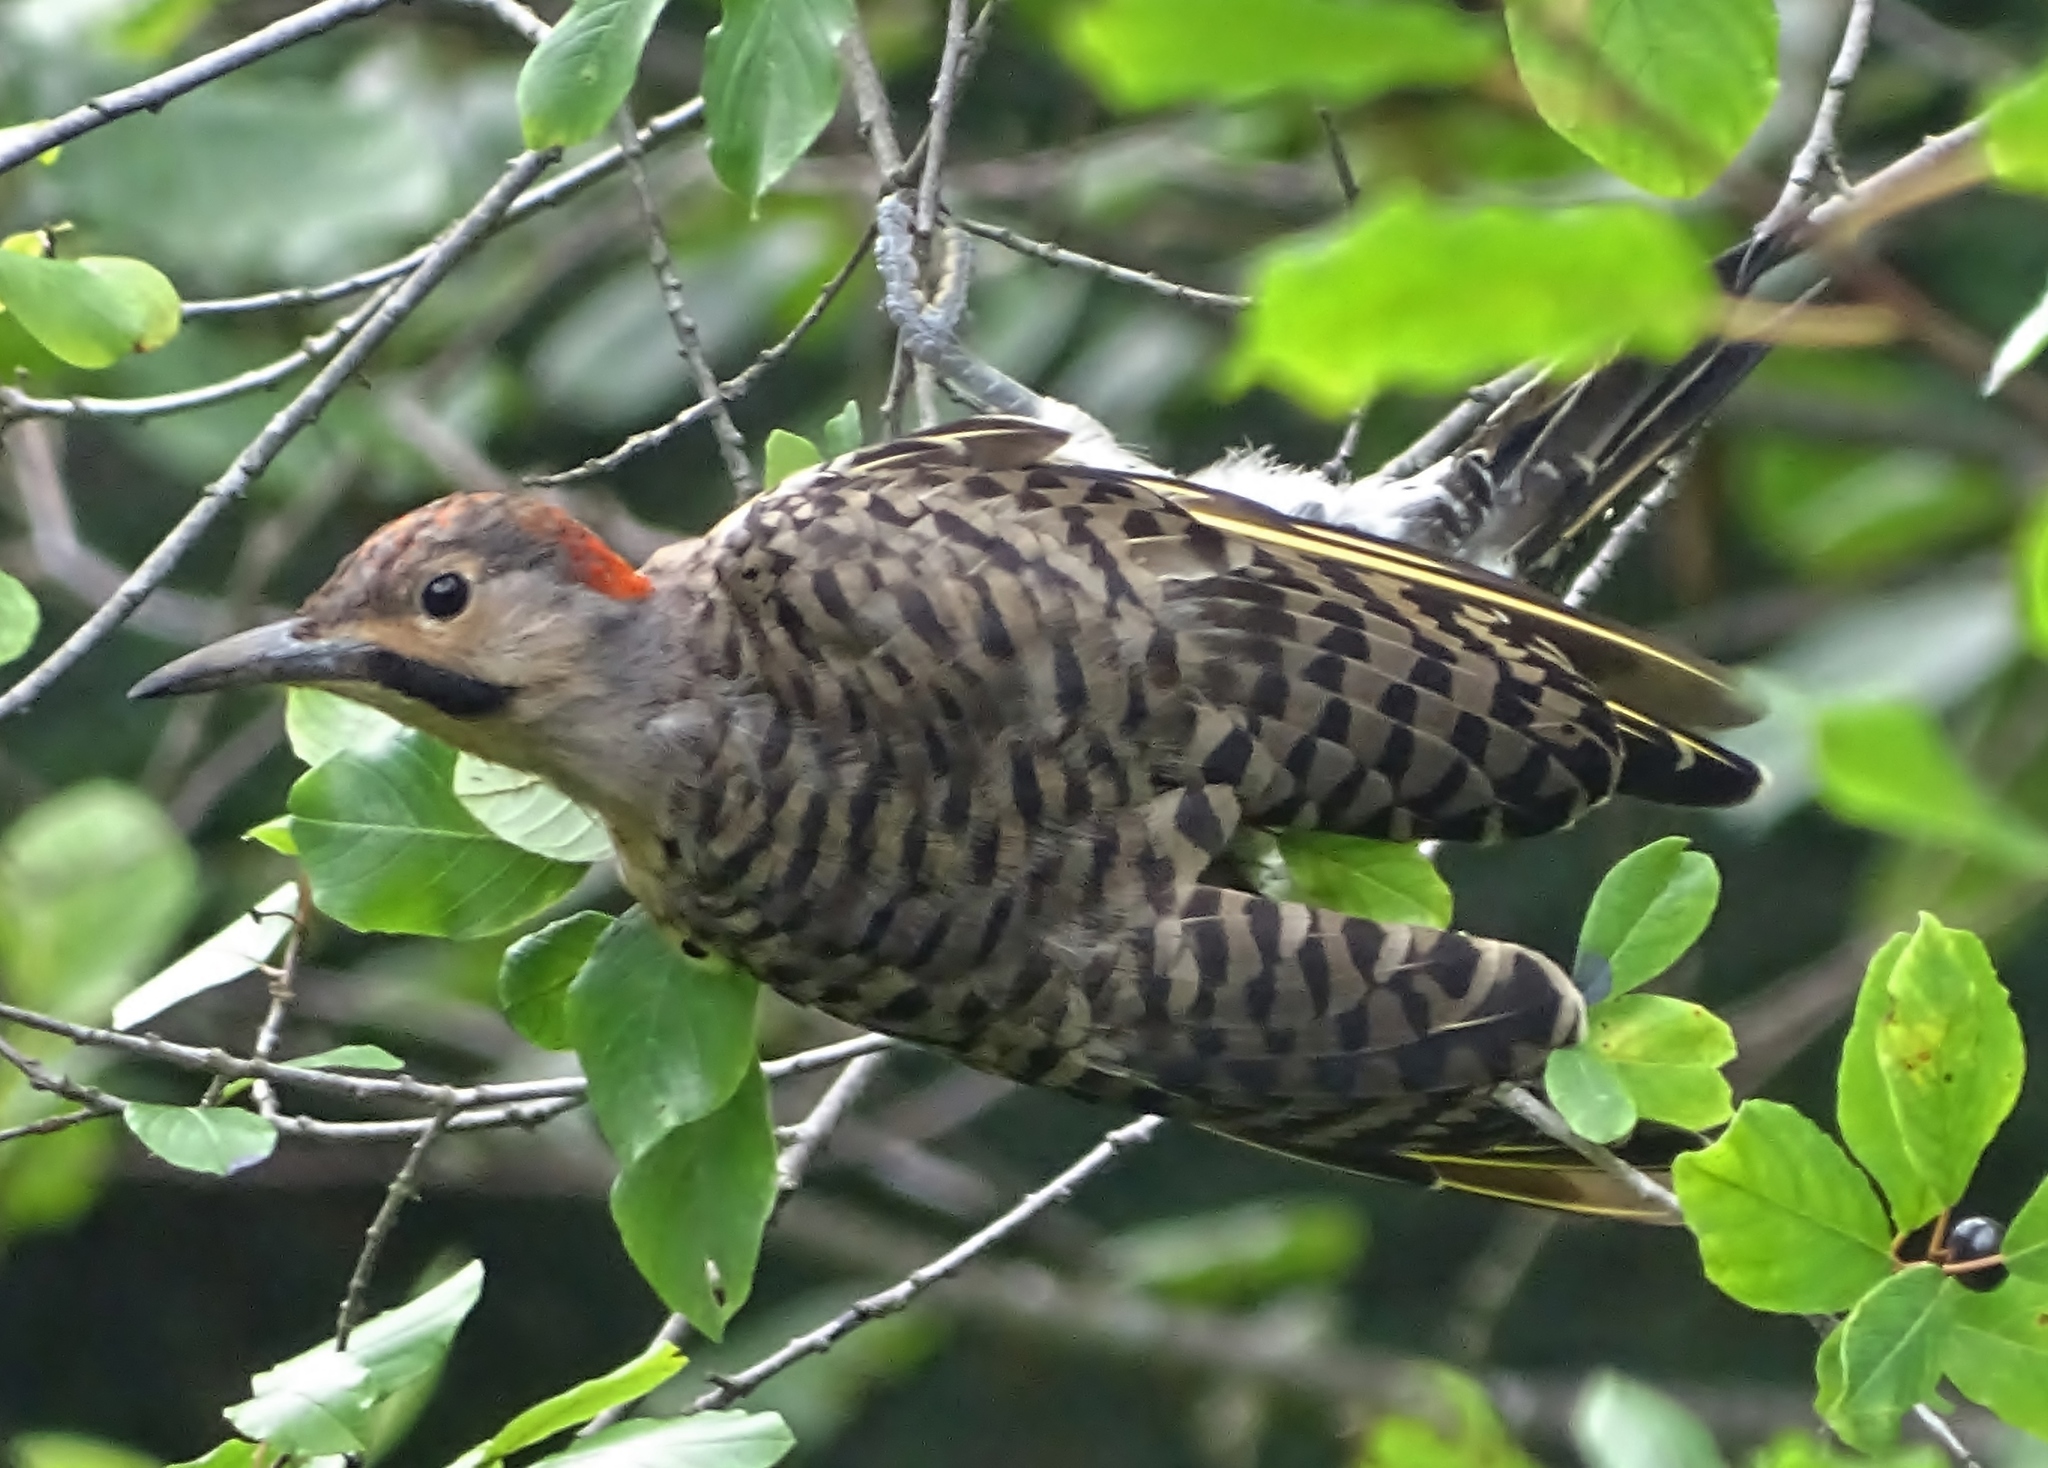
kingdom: Animalia
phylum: Chordata
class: Aves
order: Piciformes
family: Picidae
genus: Colaptes
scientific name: Colaptes auratus
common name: Northern flicker
